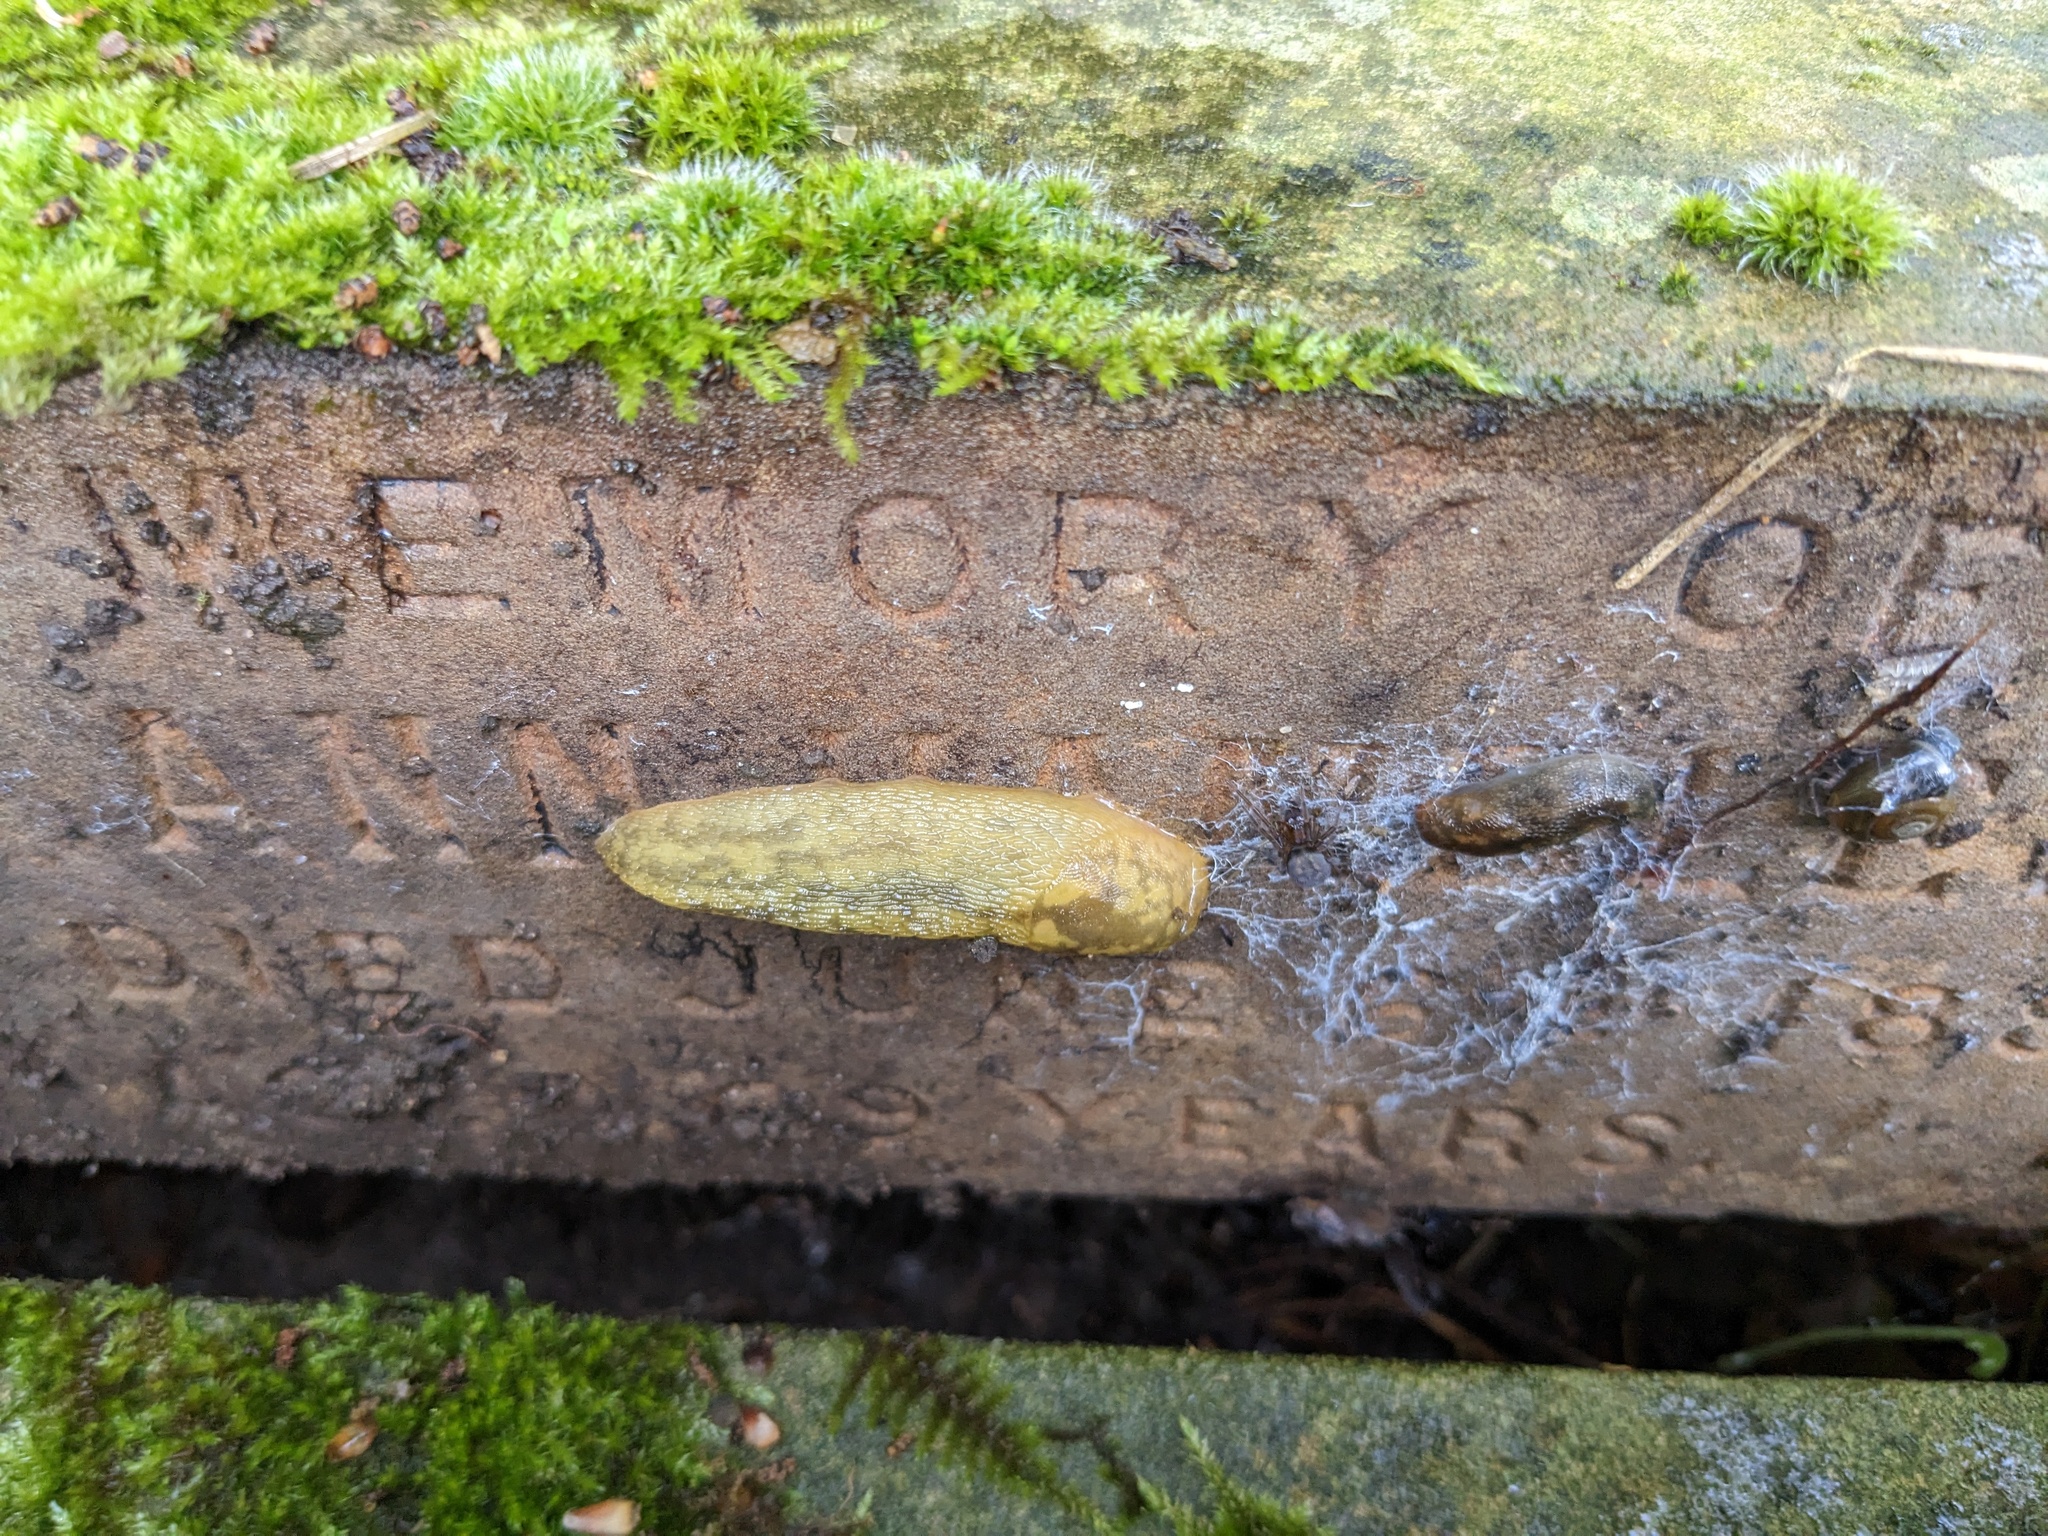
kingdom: Animalia
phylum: Mollusca
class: Gastropoda
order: Stylommatophora
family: Limacidae
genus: Limacus
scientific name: Limacus maculatus
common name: Irish yellow slug
